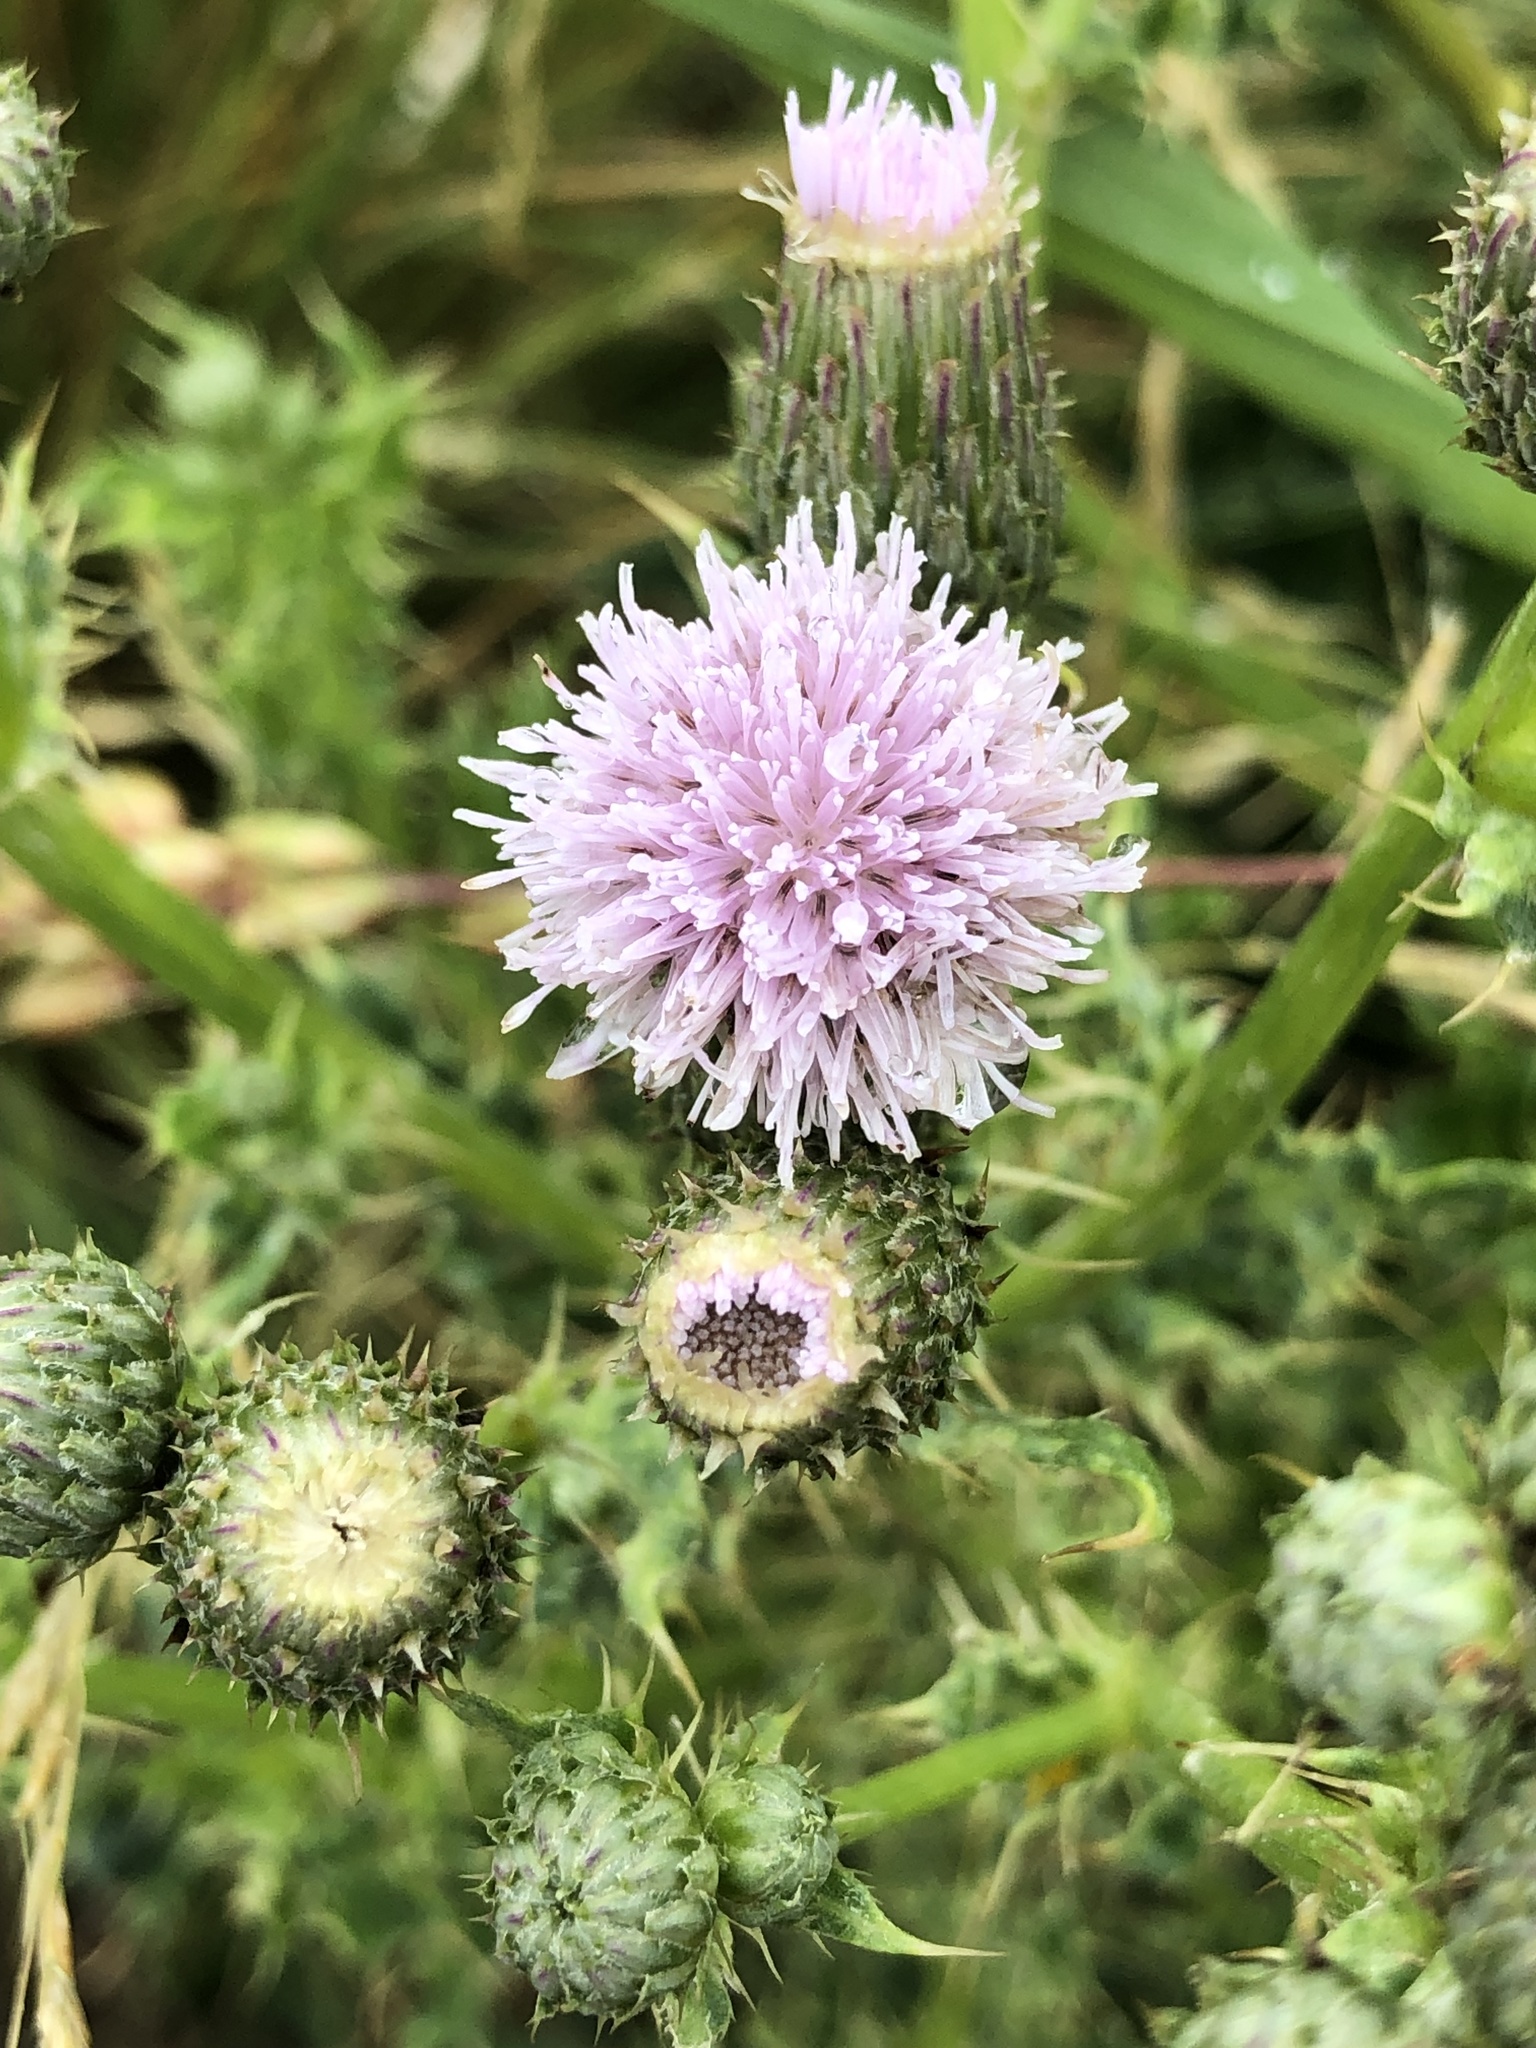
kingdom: Plantae
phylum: Tracheophyta
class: Magnoliopsida
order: Asterales
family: Asteraceae
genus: Cirsium
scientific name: Cirsium arvense
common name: Creeping thistle
